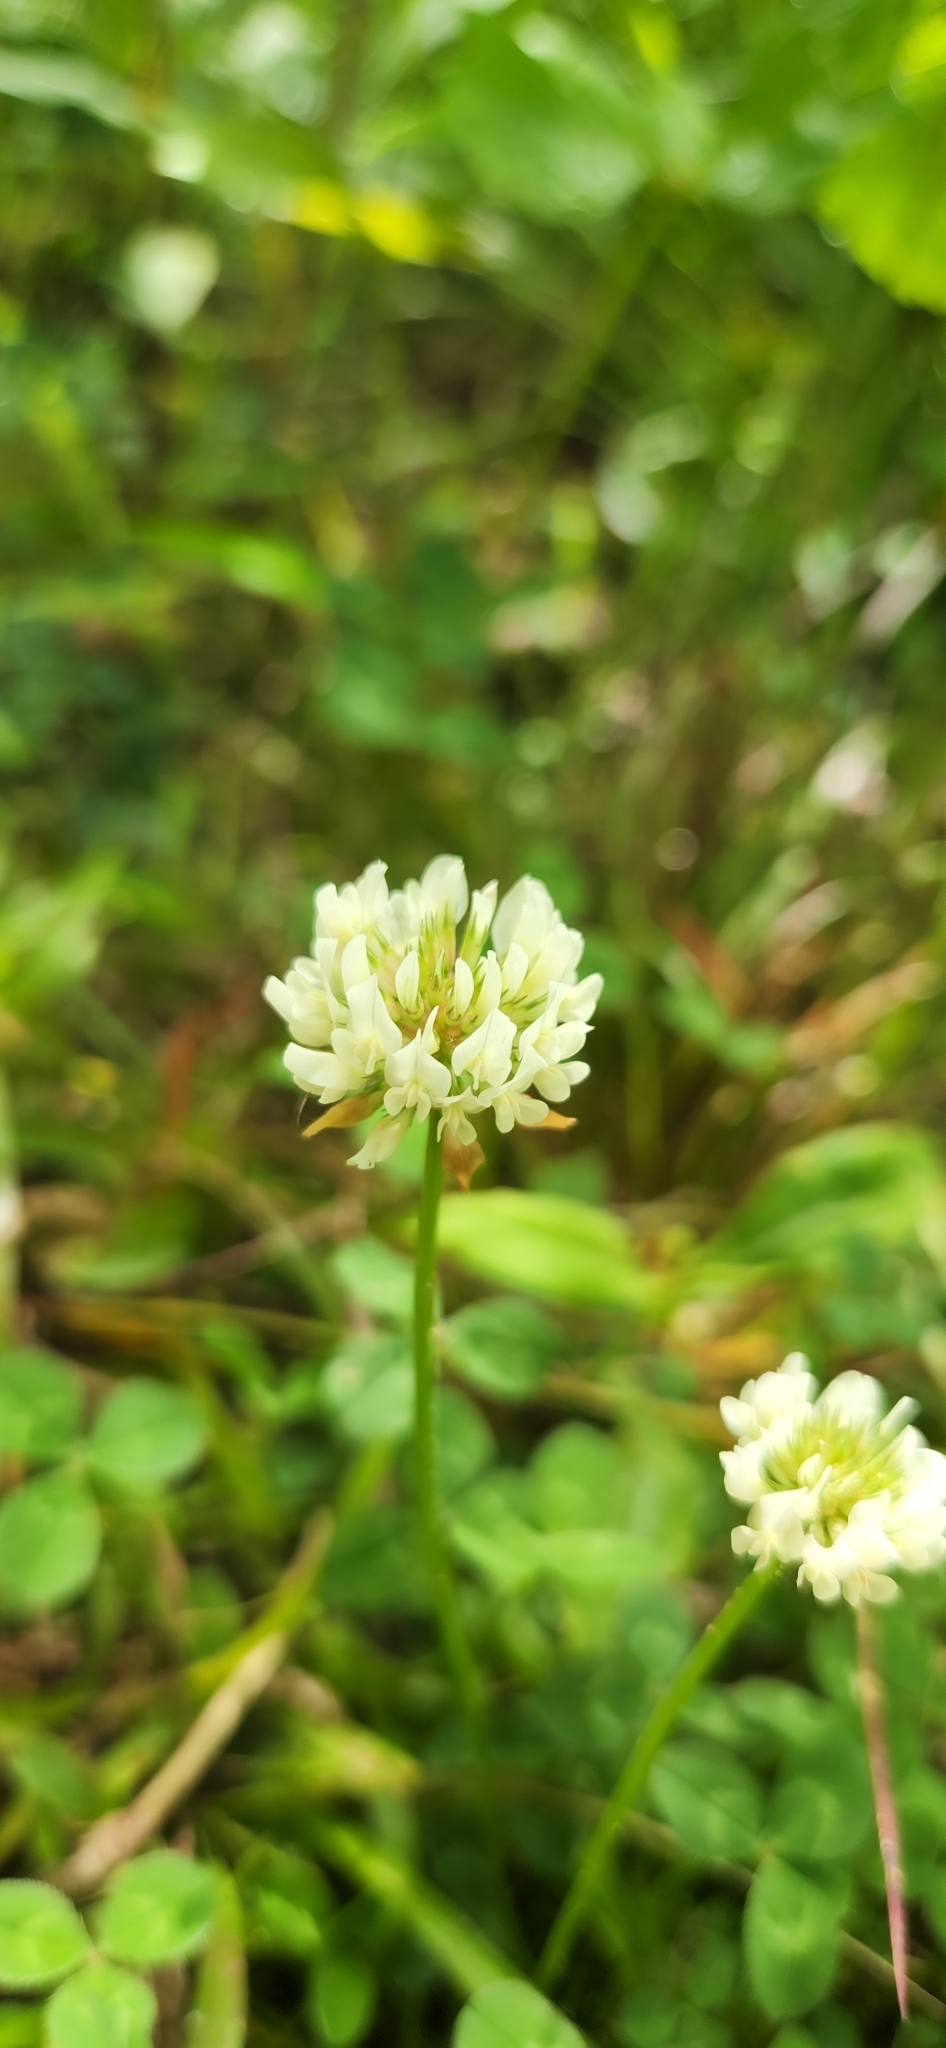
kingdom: Plantae
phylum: Tracheophyta
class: Magnoliopsida
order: Fabales
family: Fabaceae
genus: Trifolium
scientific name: Trifolium repens
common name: White clover
